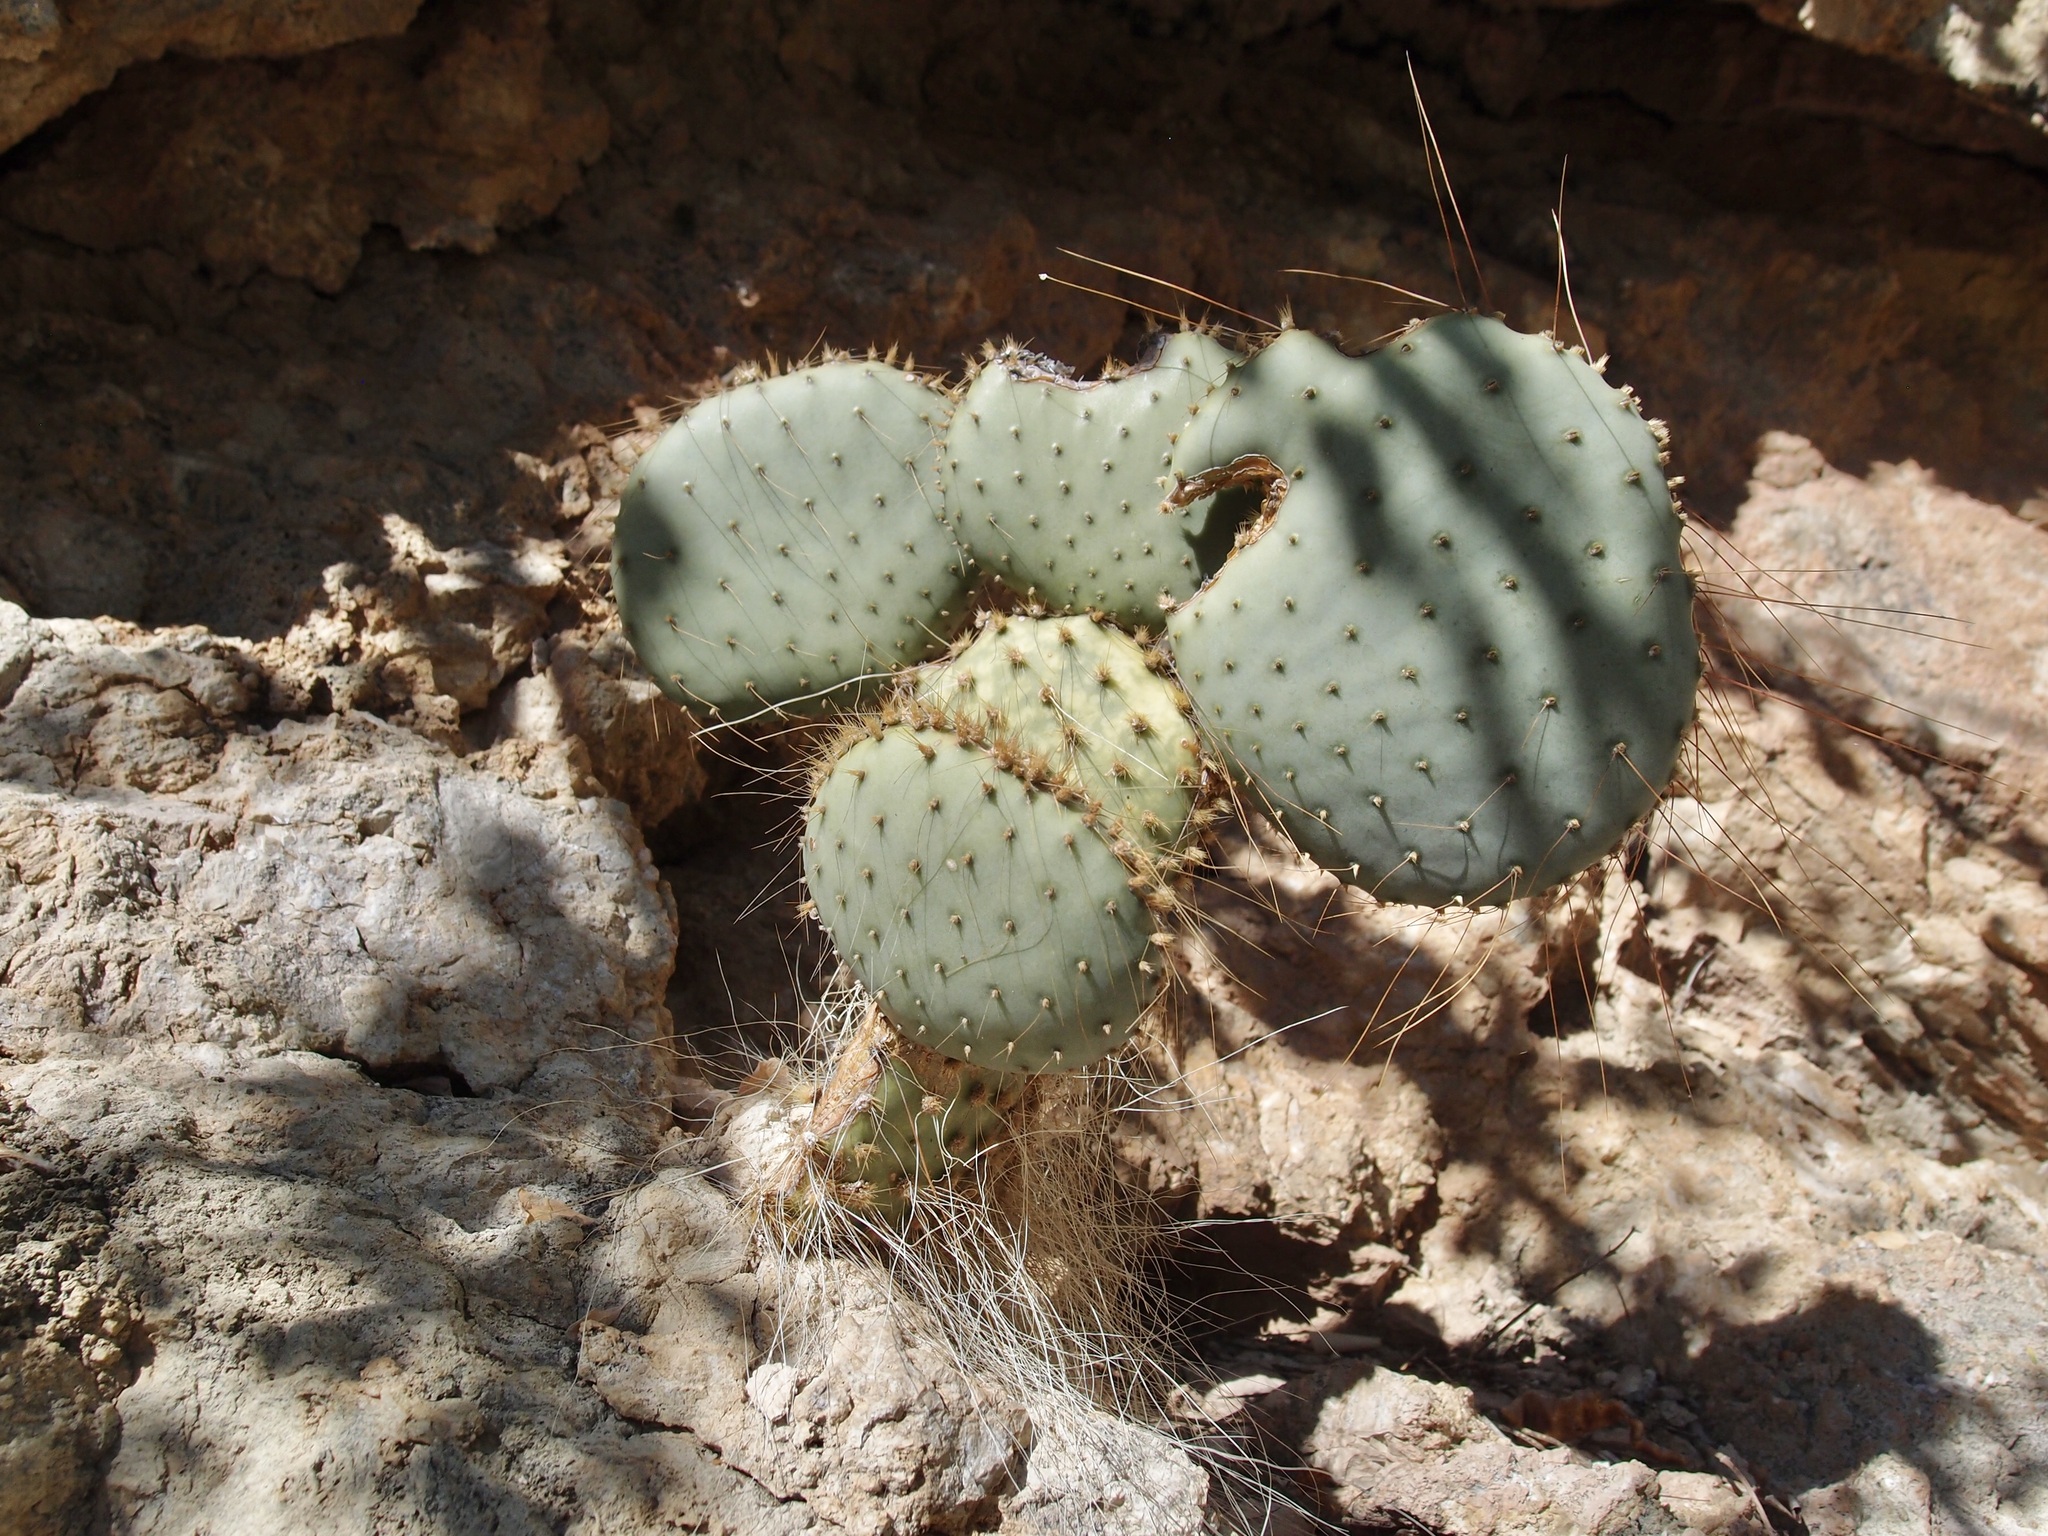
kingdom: Plantae
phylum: Tracheophyta
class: Magnoliopsida
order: Caryophyllales
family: Cactaceae
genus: Opuntia
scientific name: Opuntia gosseliniana
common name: Violet prickly-pear
